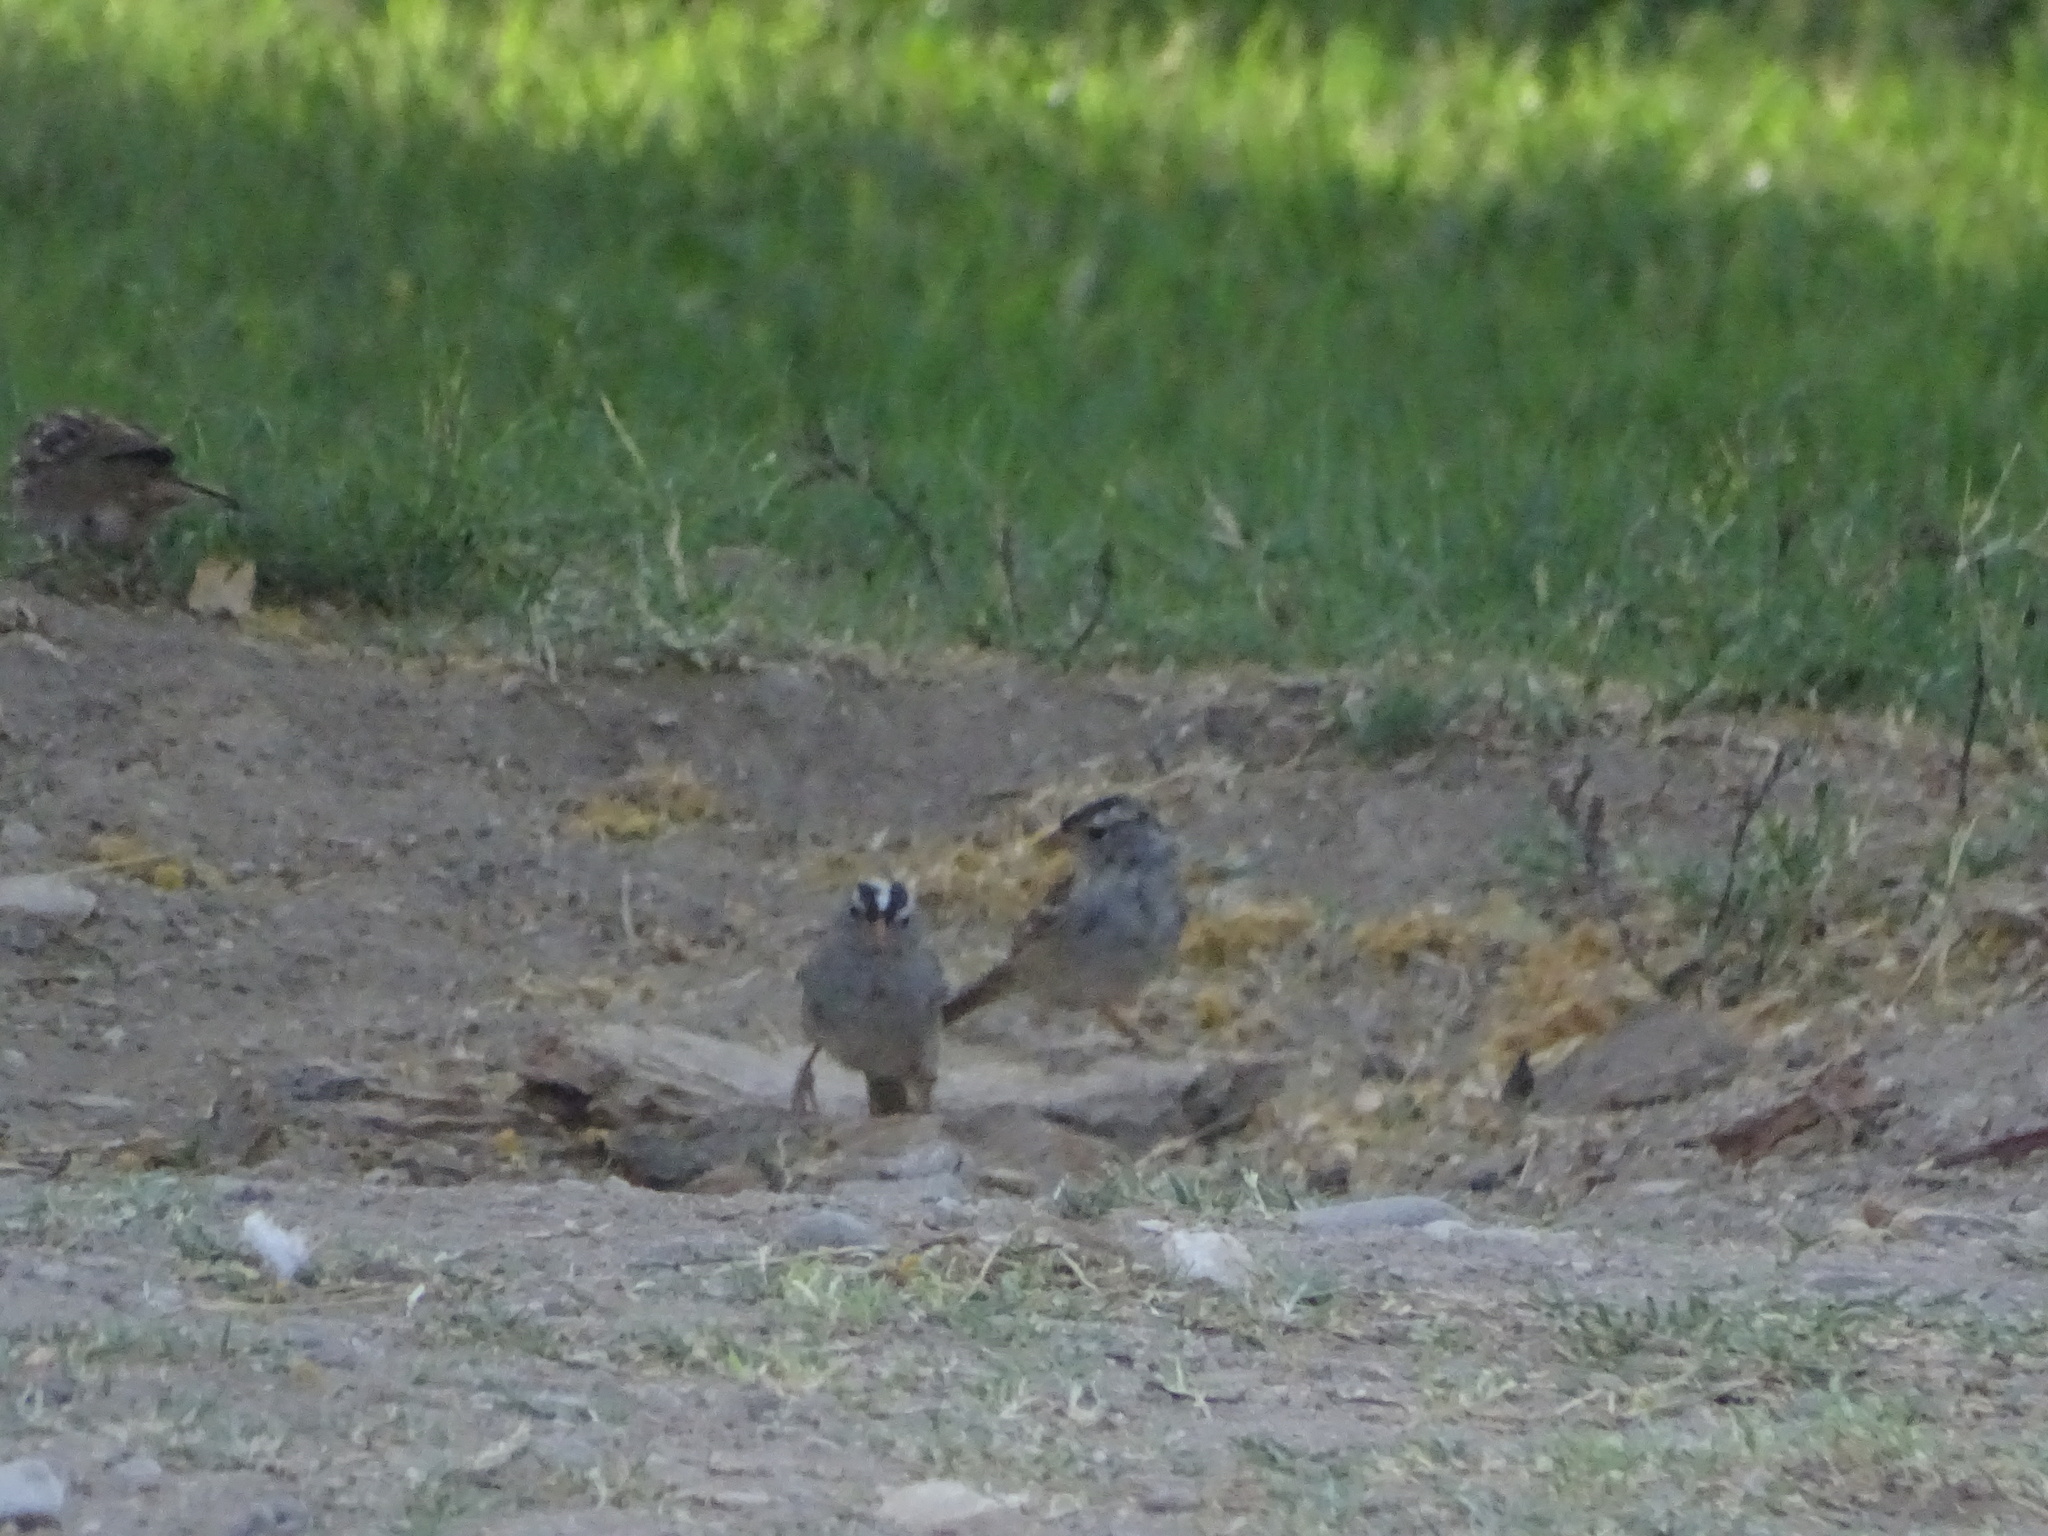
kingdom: Animalia
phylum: Chordata
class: Aves
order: Passeriformes
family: Passerellidae
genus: Zonotrichia
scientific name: Zonotrichia leucophrys
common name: White-crowned sparrow
